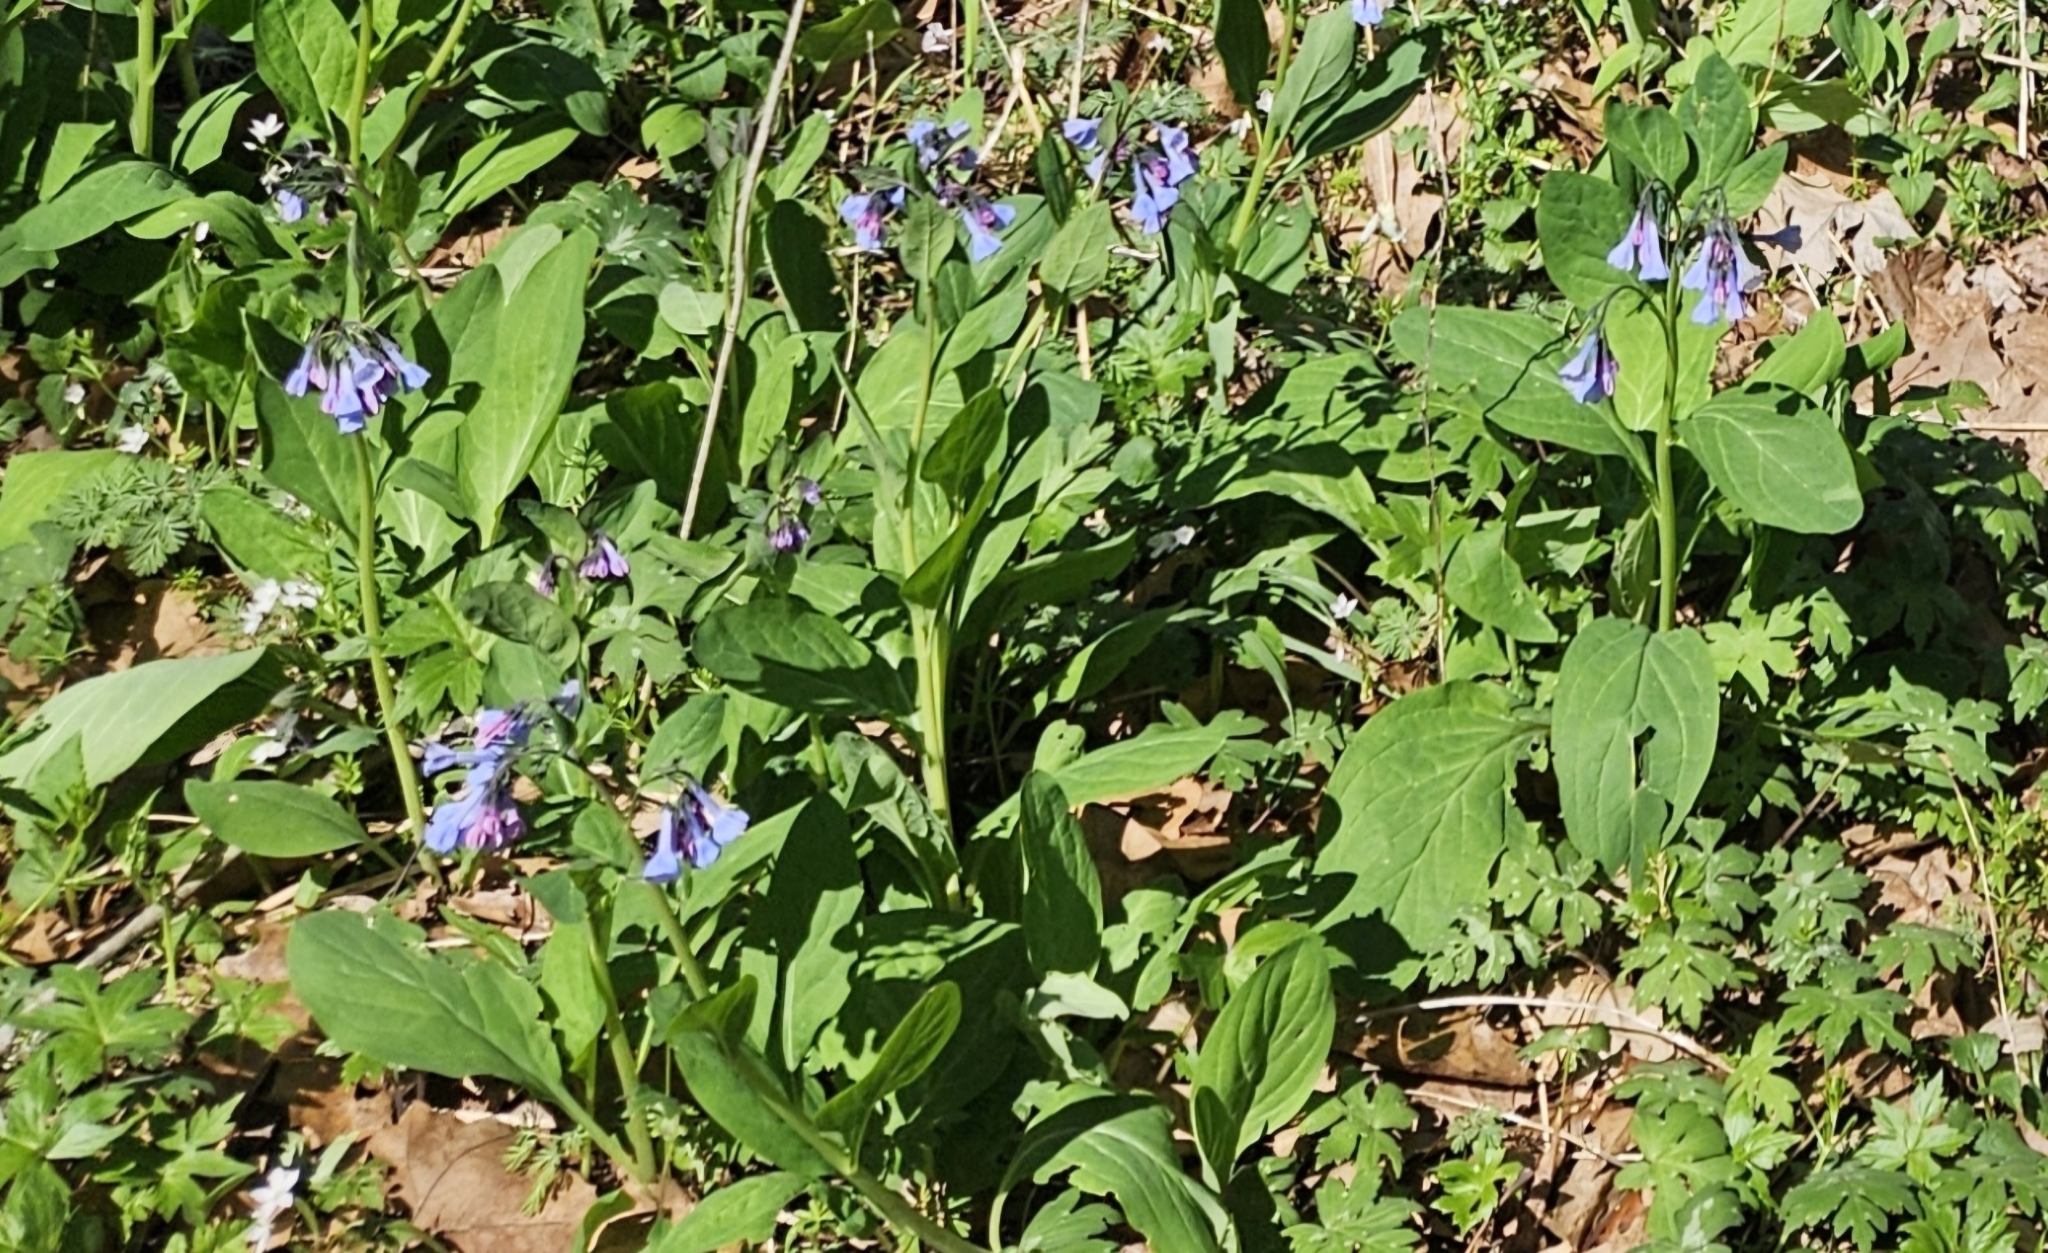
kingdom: Plantae
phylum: Tracheophyta
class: Magnoliopsida
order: Boraginales
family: Boraginaceae
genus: Mertensia
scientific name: Mertensia virginica
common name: Virginia bluebells
